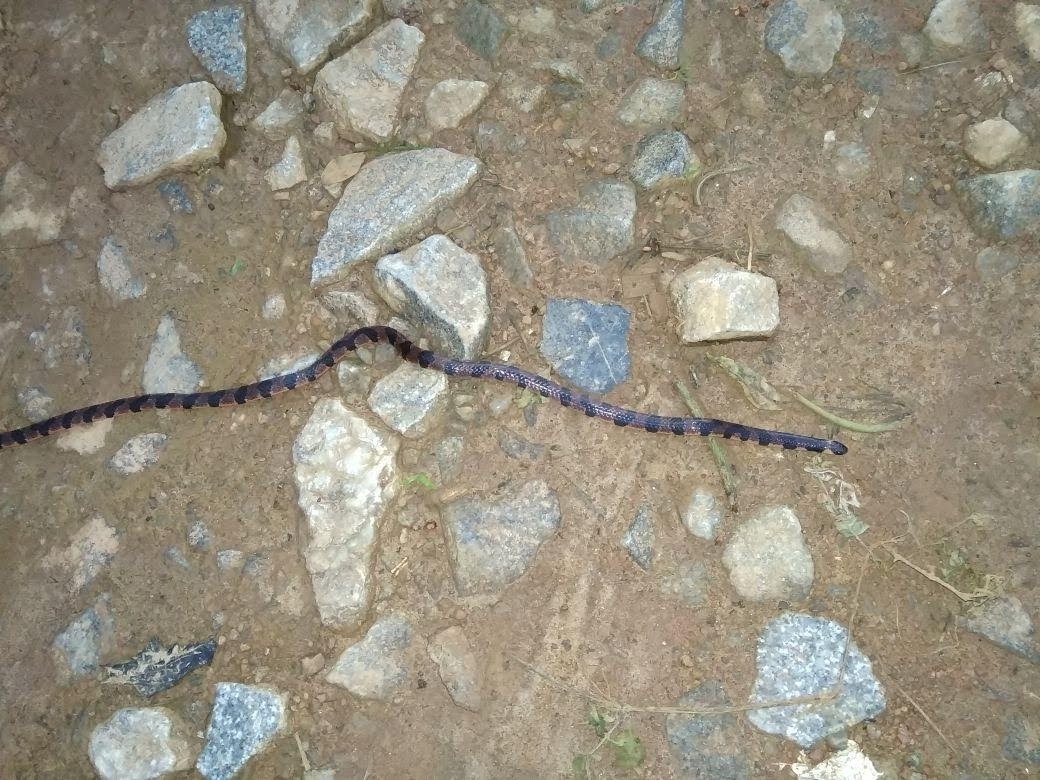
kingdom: Animalia
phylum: Chordata
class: Squamata
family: Elapidae
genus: Calliophis
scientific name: Calliophis bibroni
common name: Bibron's coral snake
